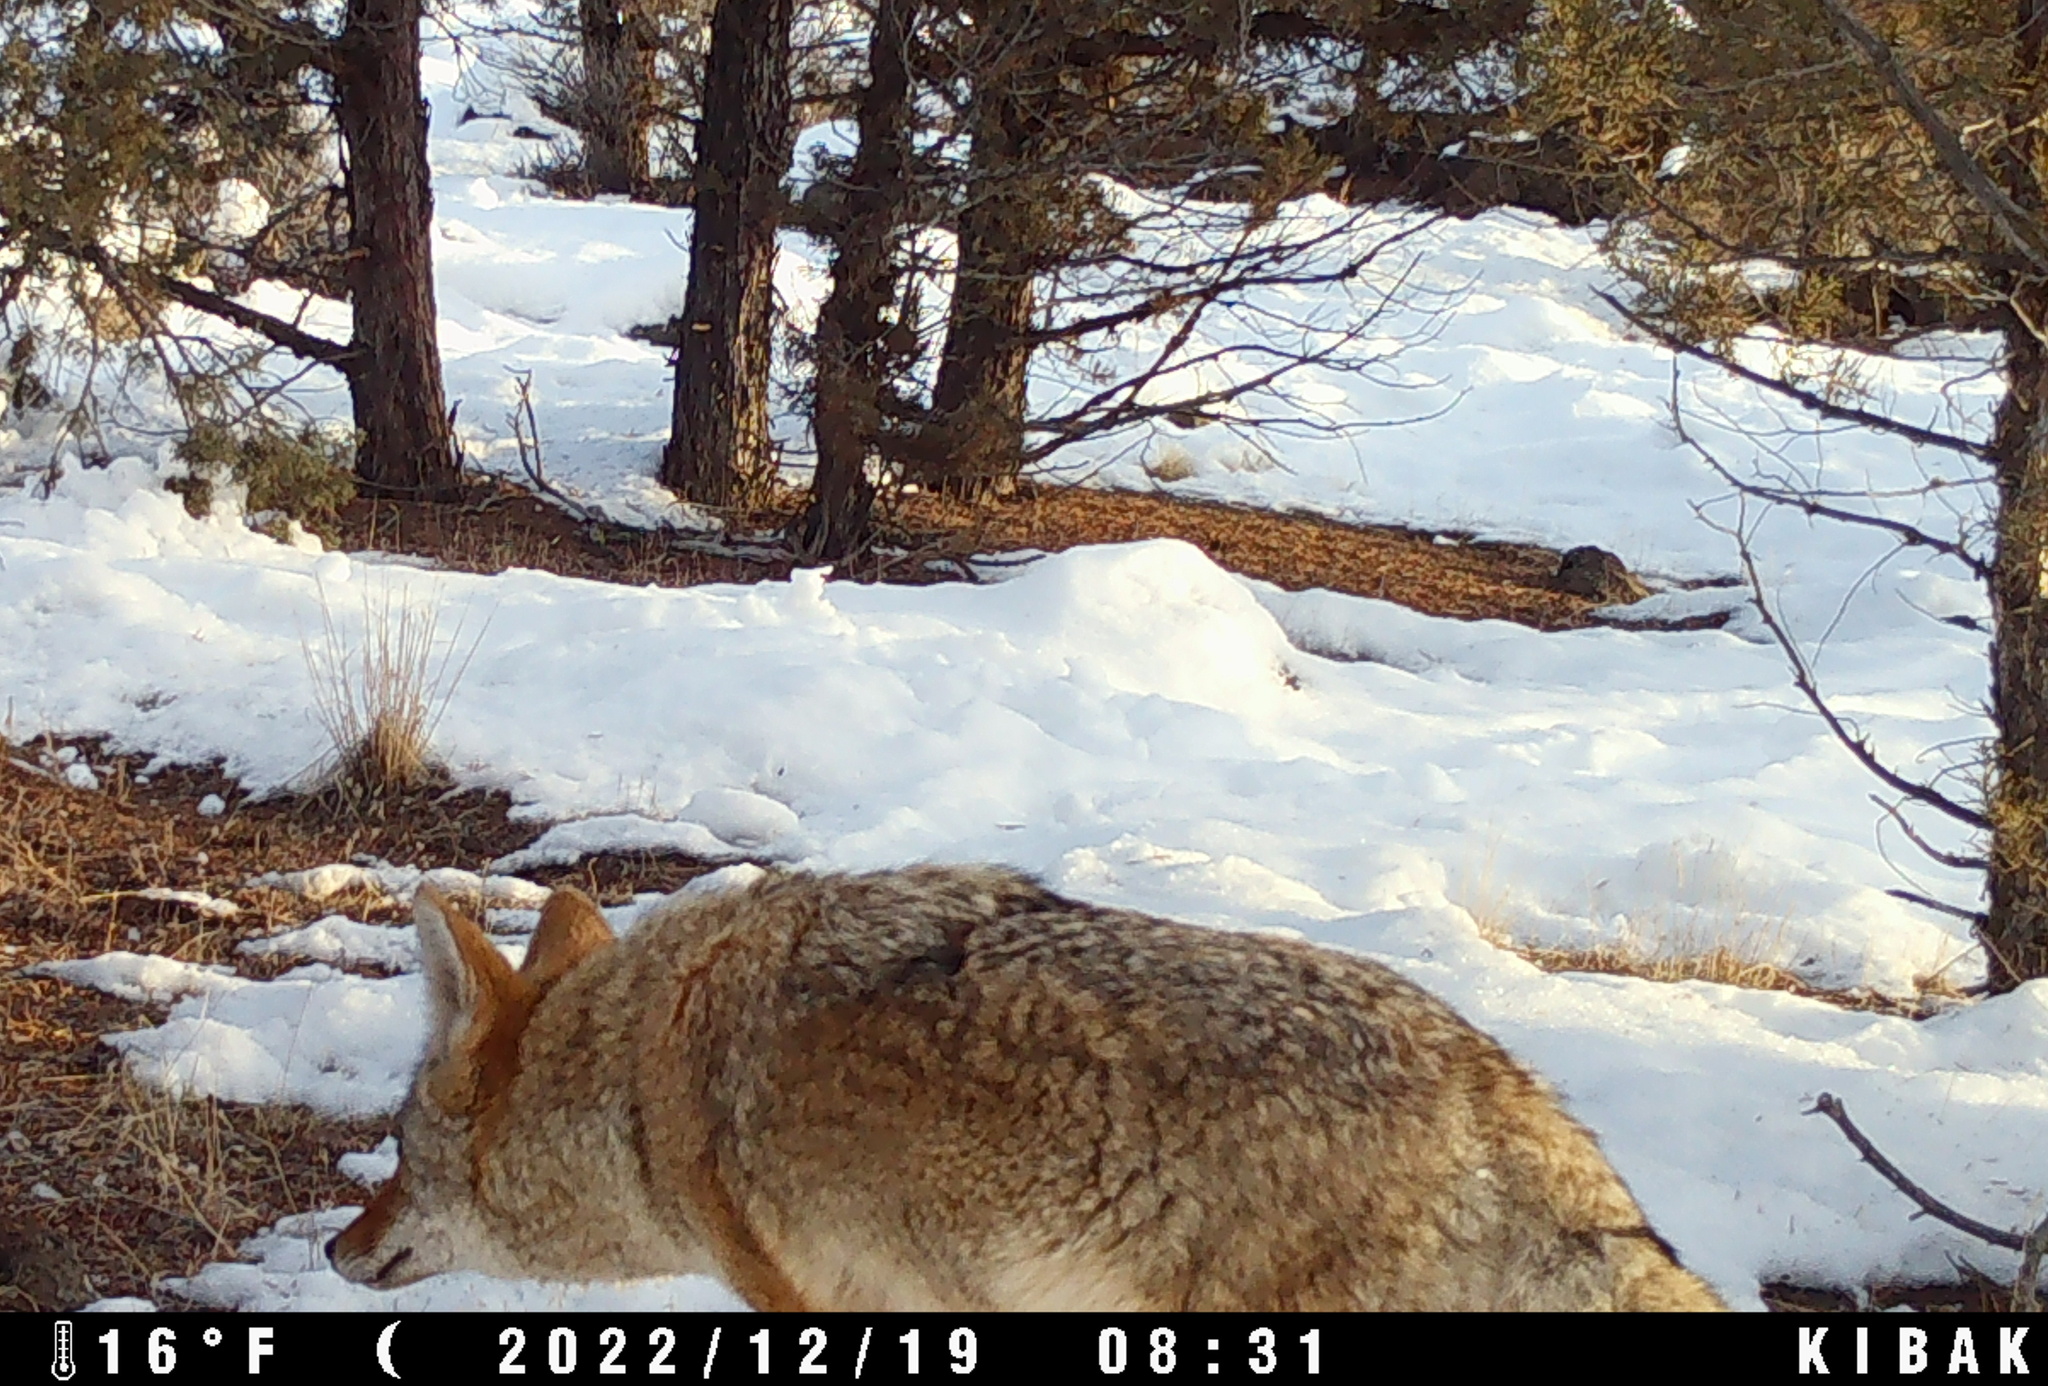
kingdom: Animalia
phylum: Chordata
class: Mammalia
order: Carnivora
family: Canidae
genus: Canis
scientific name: Canis latrans
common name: Coyote
